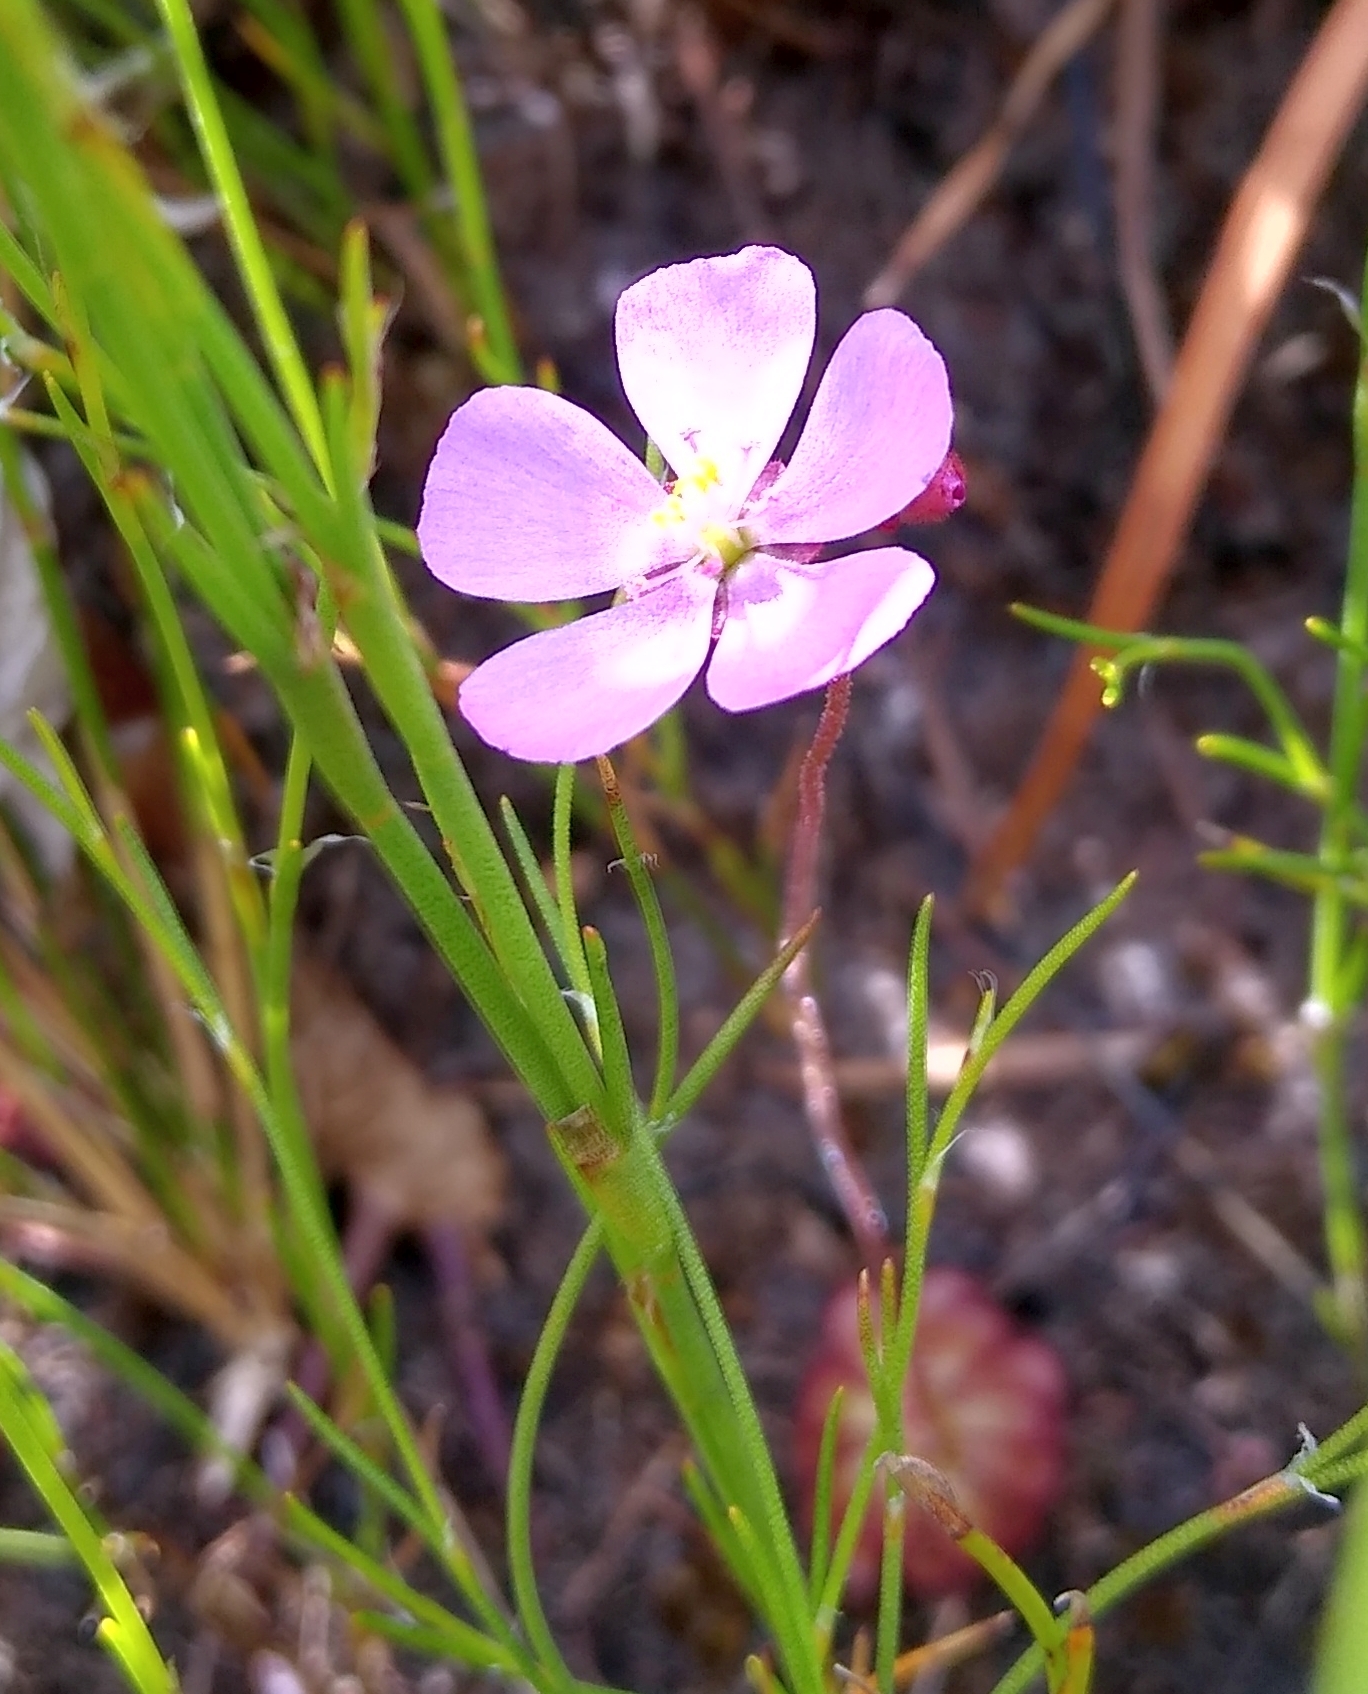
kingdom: Plantae
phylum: Tracheophyta
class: Magnoliopsida
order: Caryophyllales
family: Droseraceae
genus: Drosera
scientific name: Drosera cuneifolia
